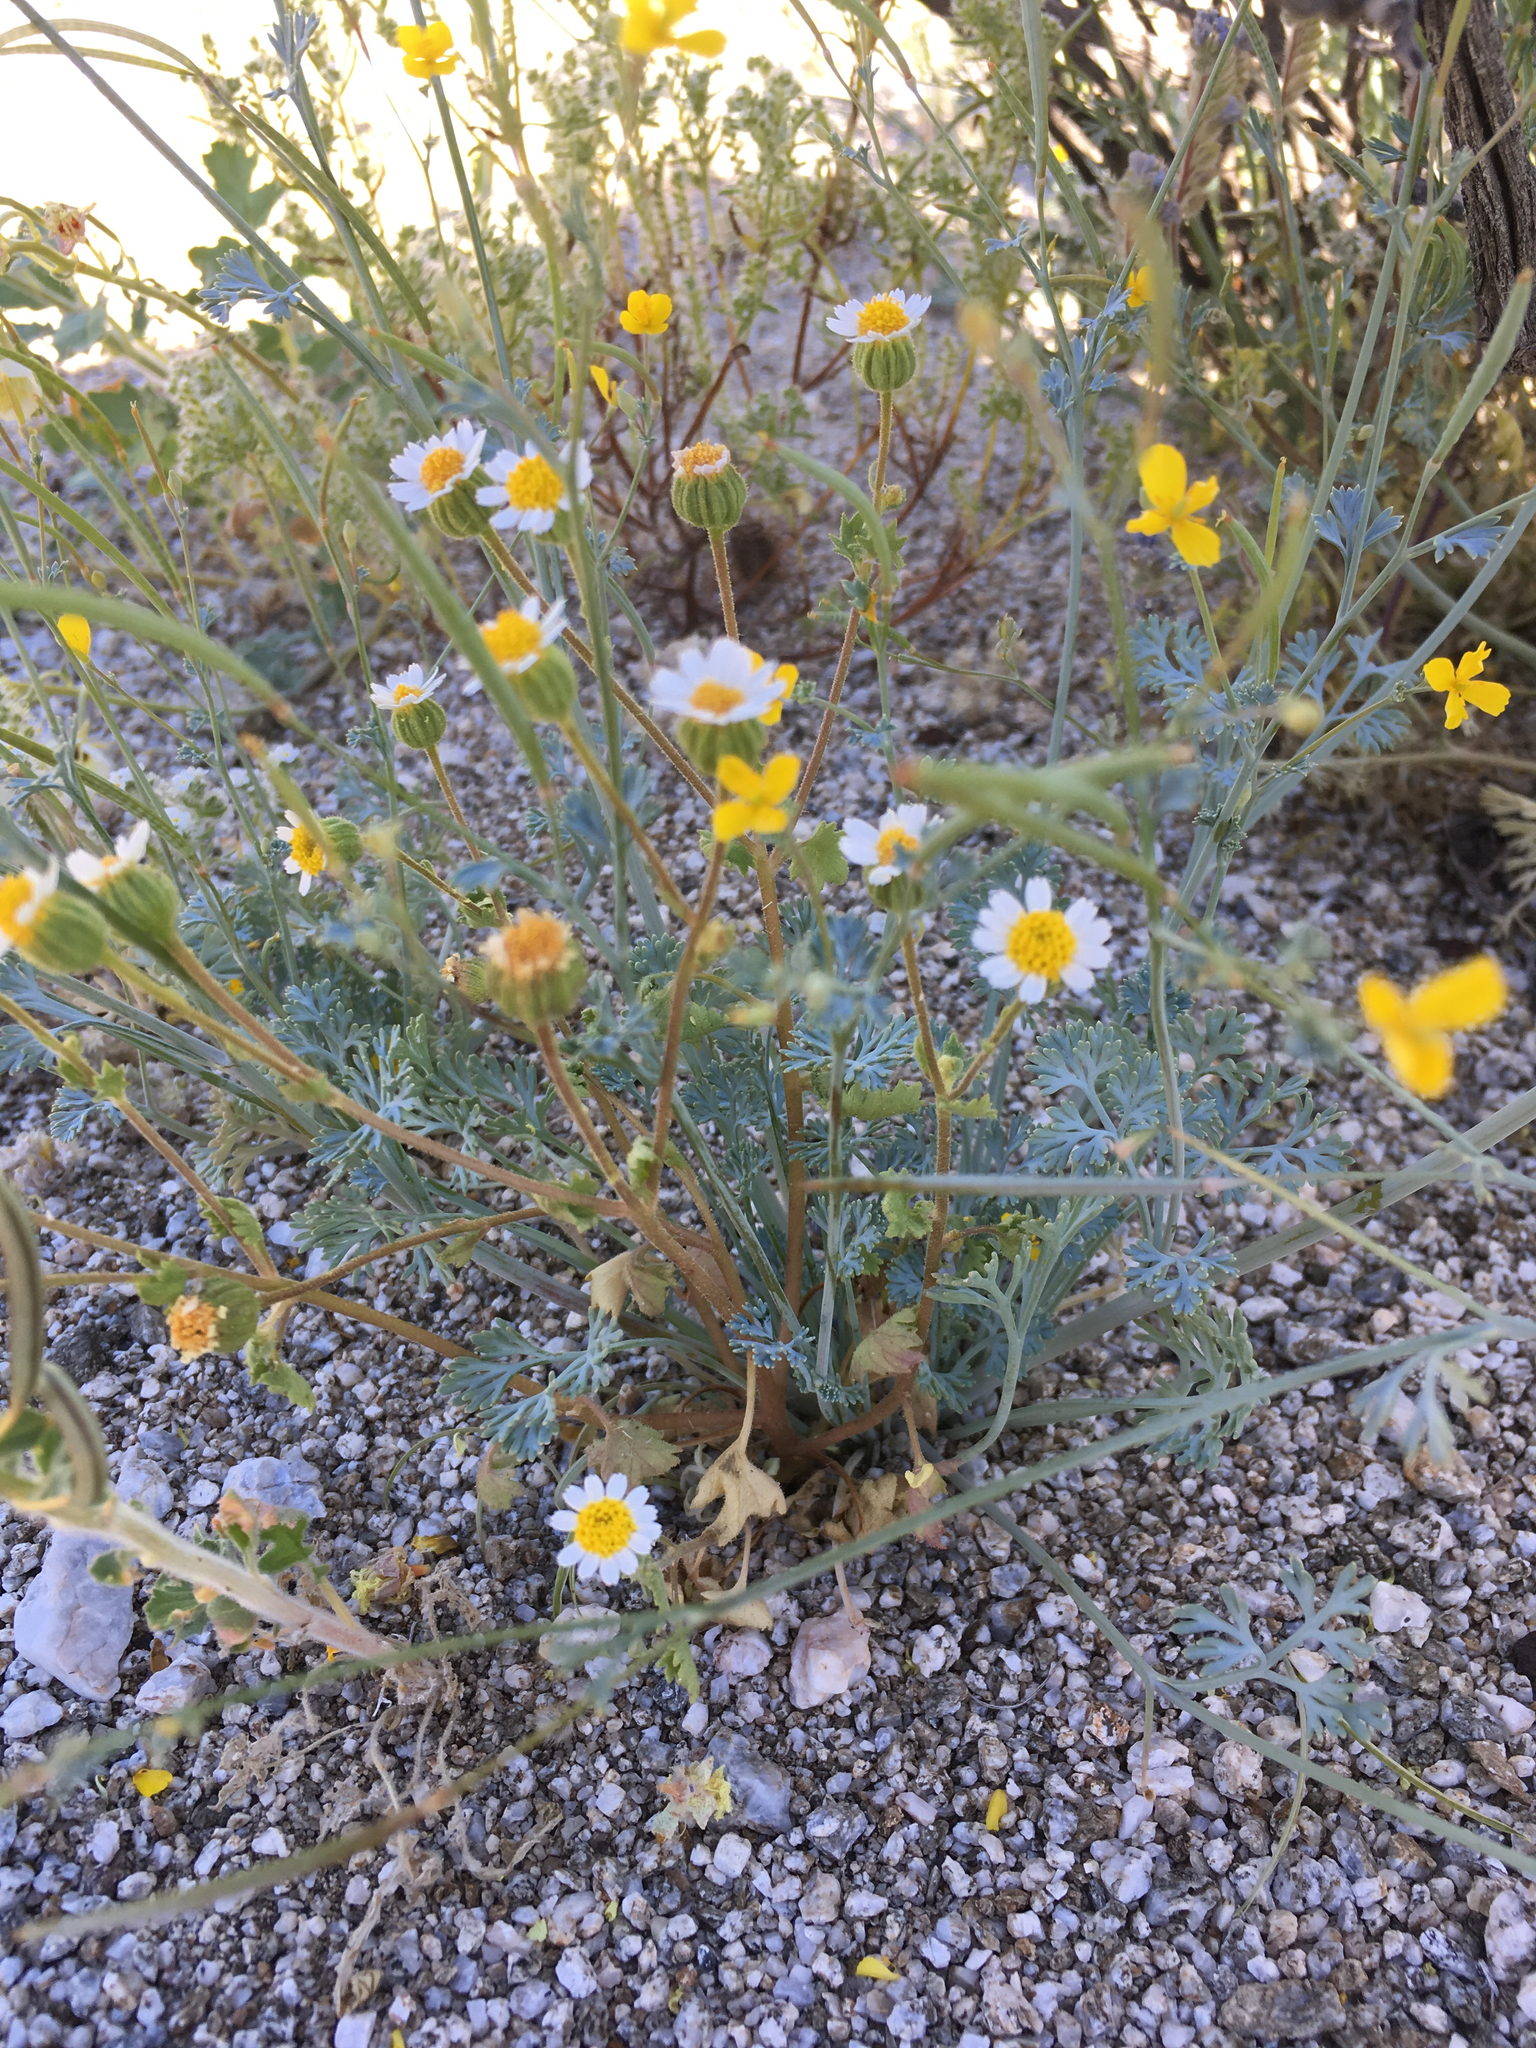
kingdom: Plantae
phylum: Tracheophyta
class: Magnoliopsida
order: Asterales
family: Asteraceae
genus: Laphamia
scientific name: Laphamia emoryi
